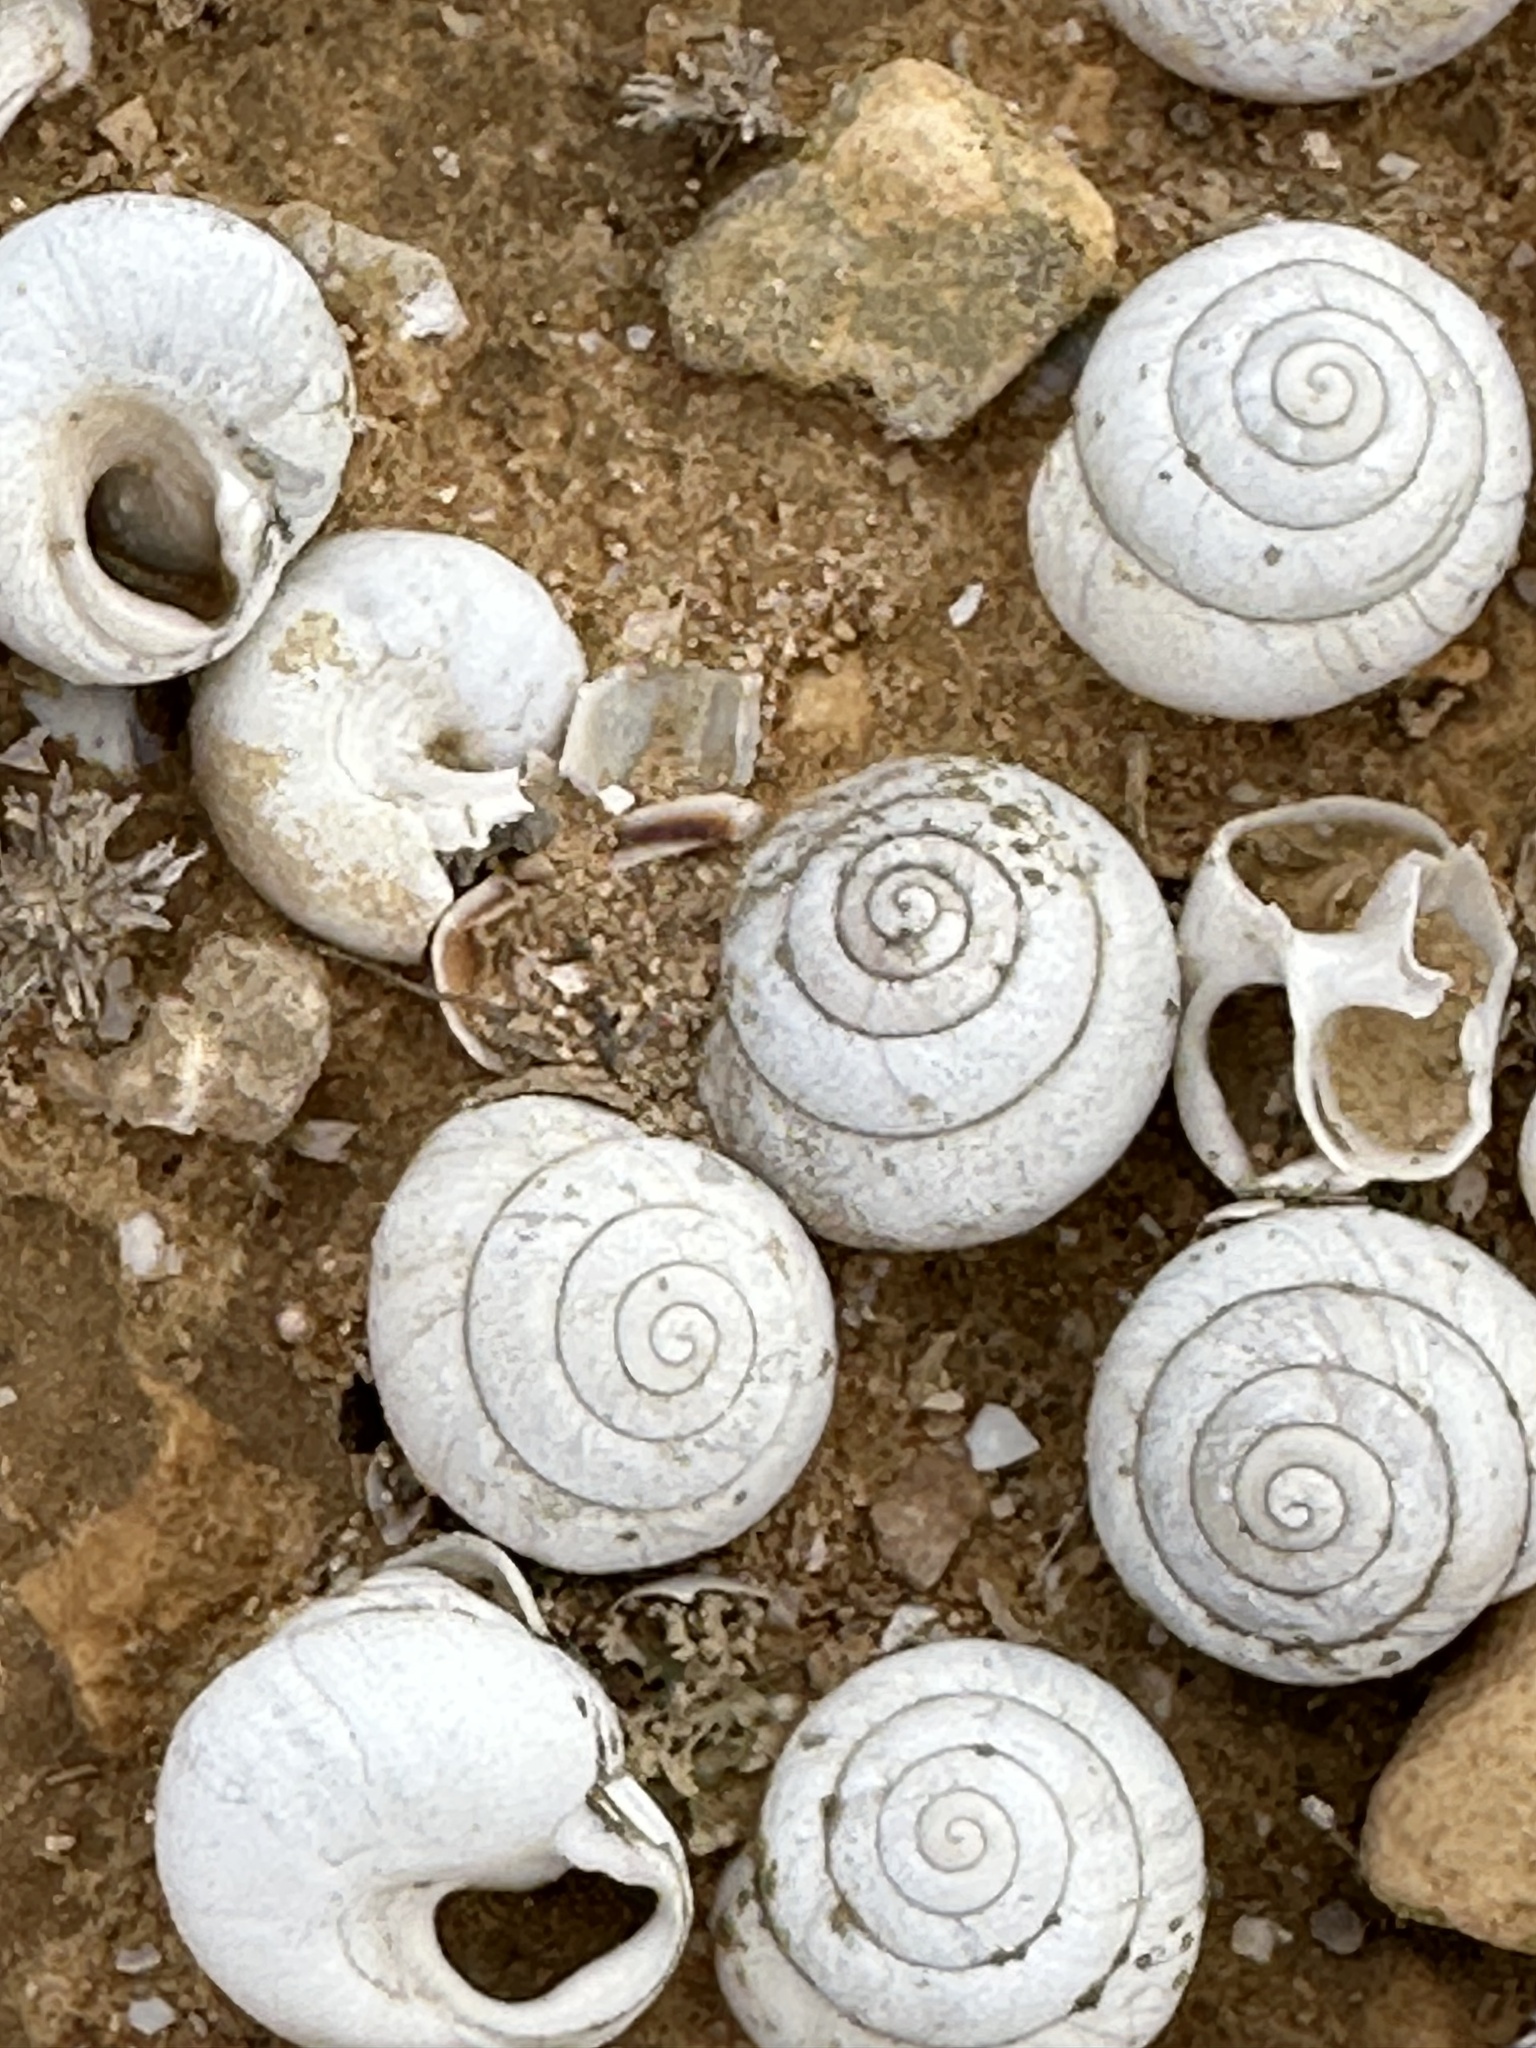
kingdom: Animalia
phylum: Mollusca
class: Gastropoda
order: Stylommatophora
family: Sphincterochilidae
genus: Sphincterochila
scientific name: Sphincterochila zonata
